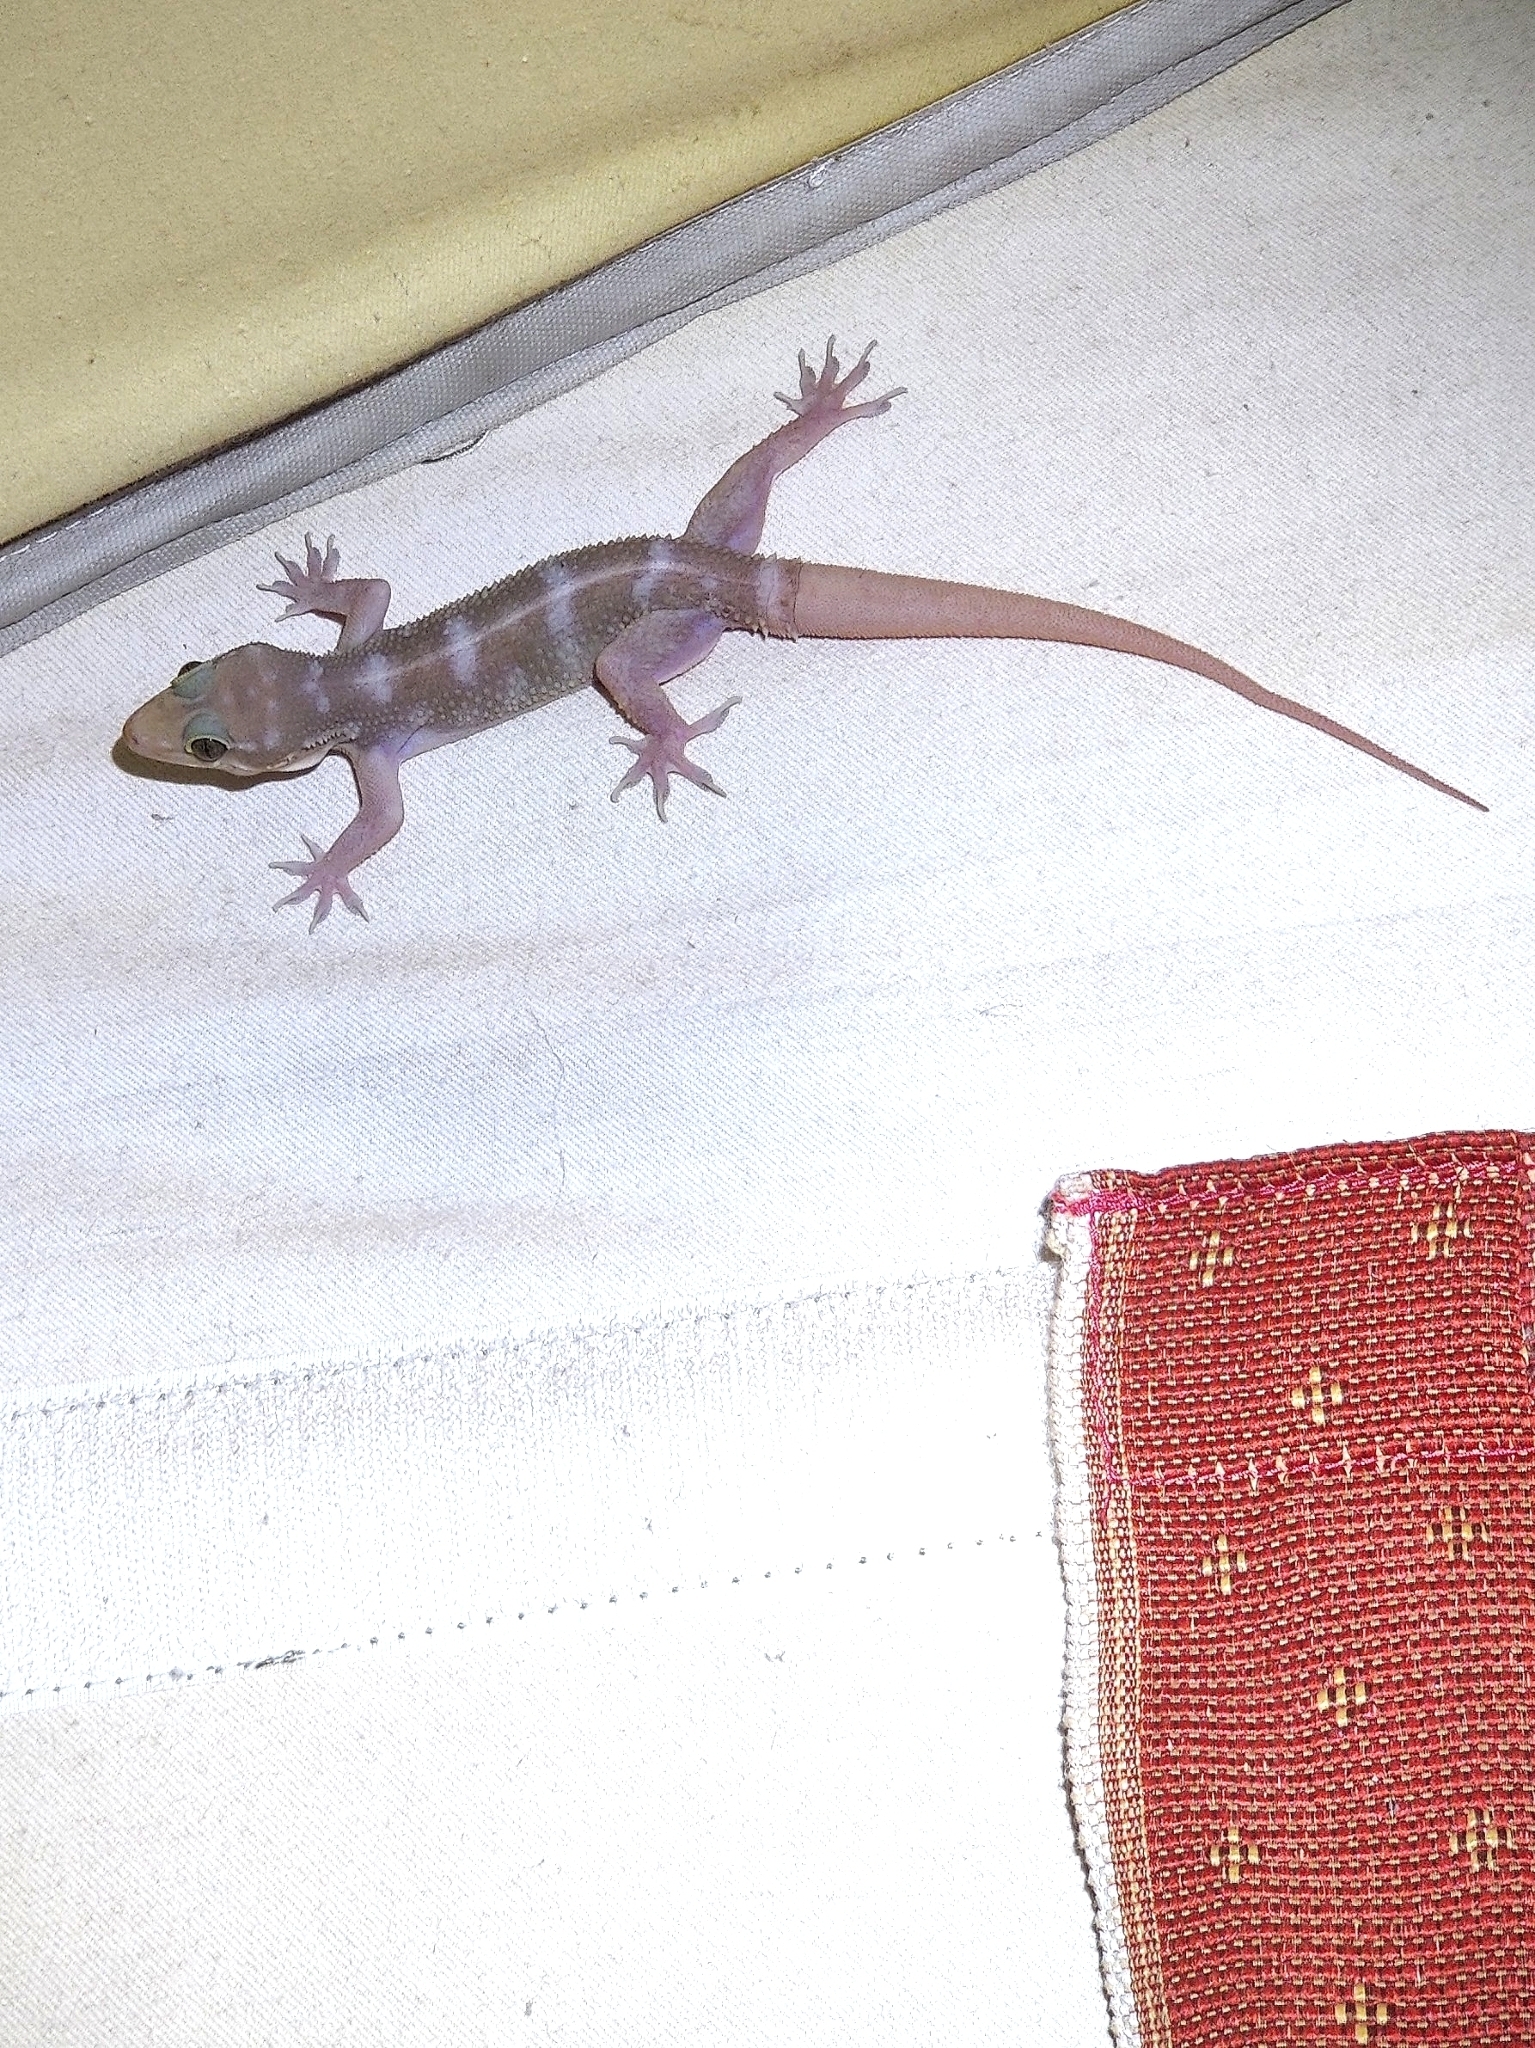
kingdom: Animalia
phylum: Chordata
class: Squamata
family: Gekkonidae
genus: Hemidactylus
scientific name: Hemidactylus prashadi
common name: Bombay leaf-toed gecko
